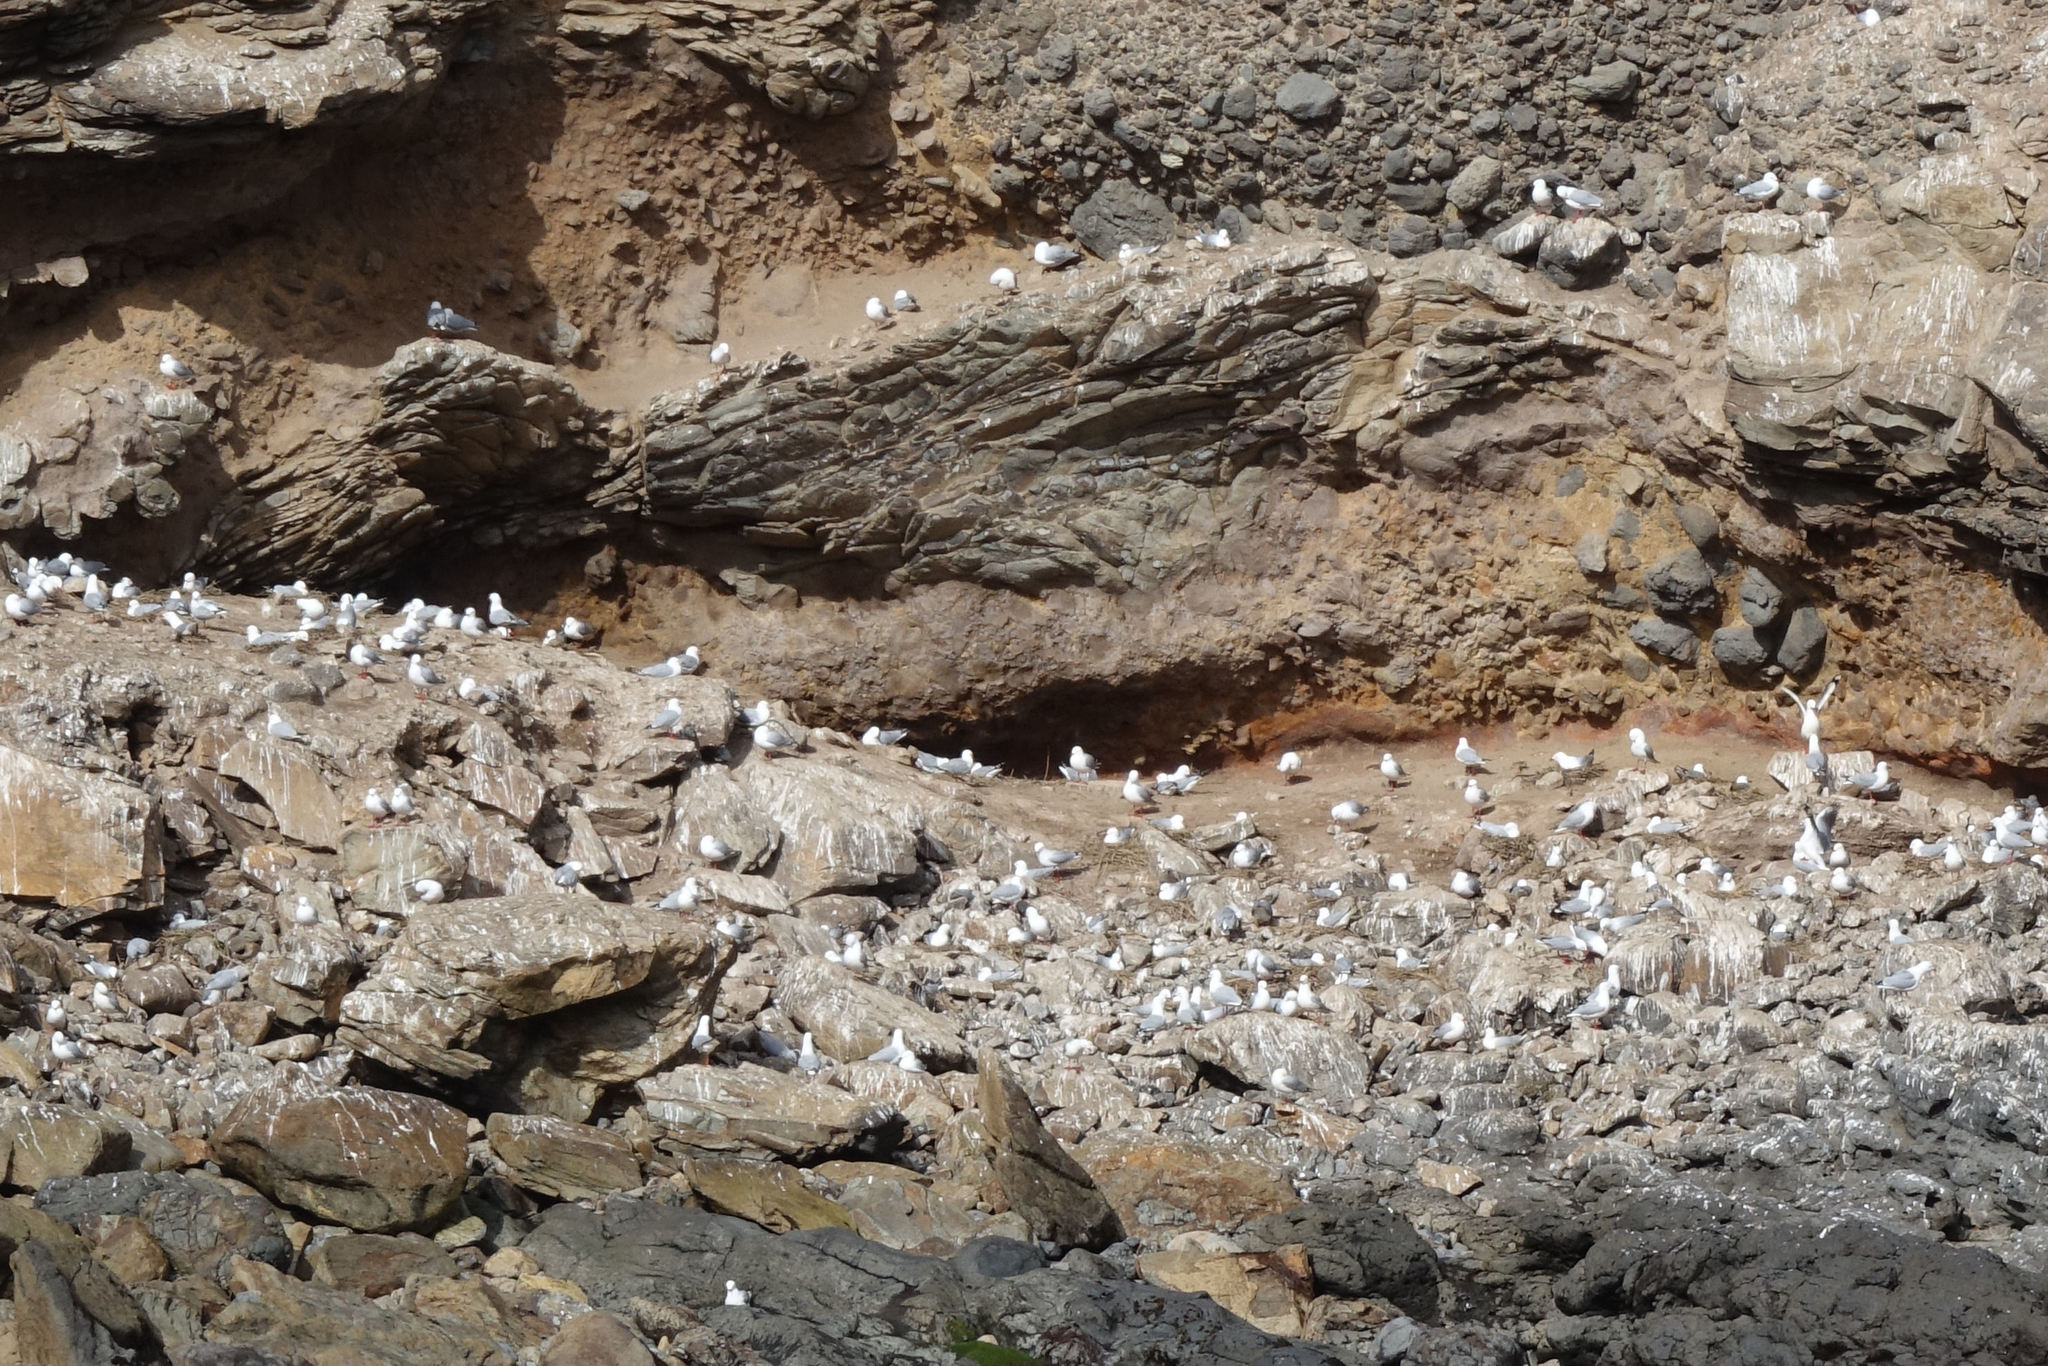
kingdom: Animalia
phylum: Chordata
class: Aves
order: Charadriiformes
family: Laridae
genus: Chroicocephalus
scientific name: Chroicocephalus novaehollandiae
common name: Silver gull
